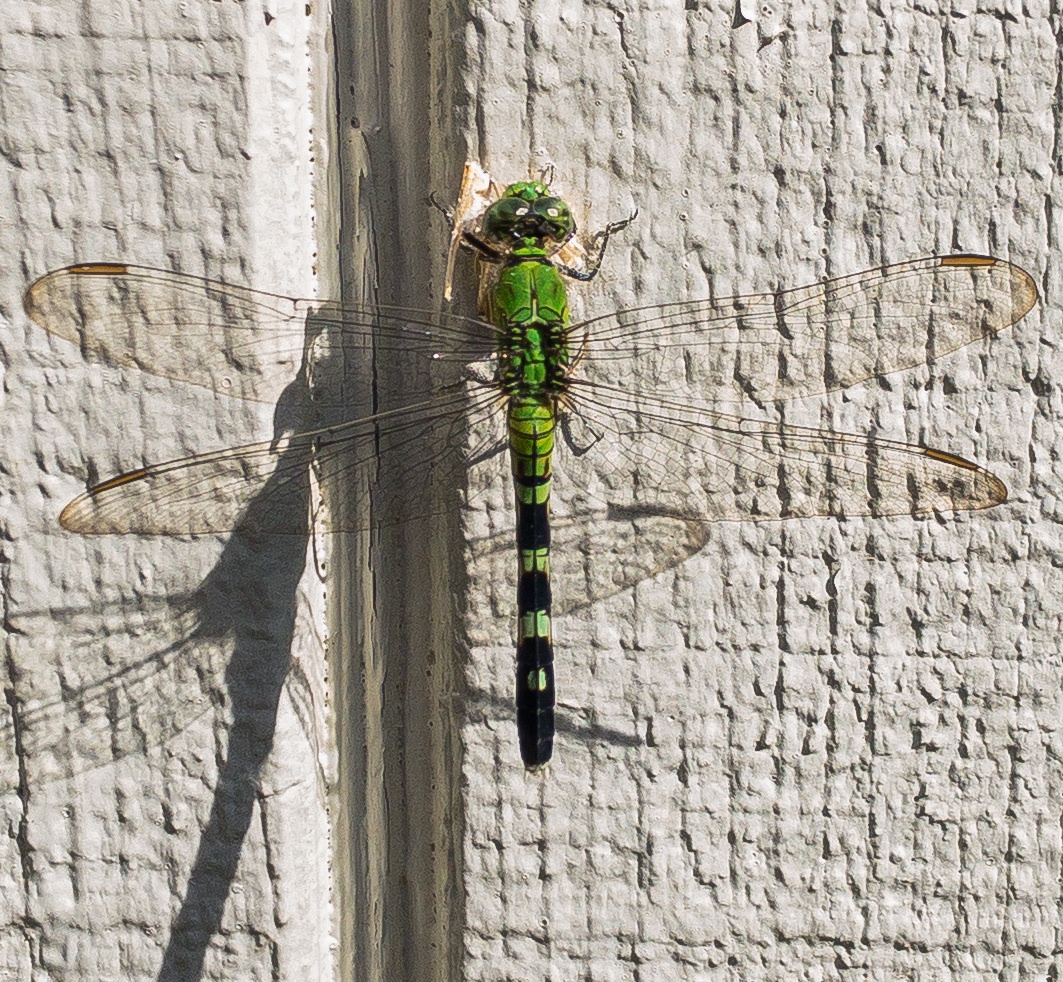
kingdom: Animalia
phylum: Arthropoda
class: Insecta
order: Odonata
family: Libellulidae
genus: Erythemis
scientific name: Erythemis simplicicollis
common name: Eastern pondhawk
